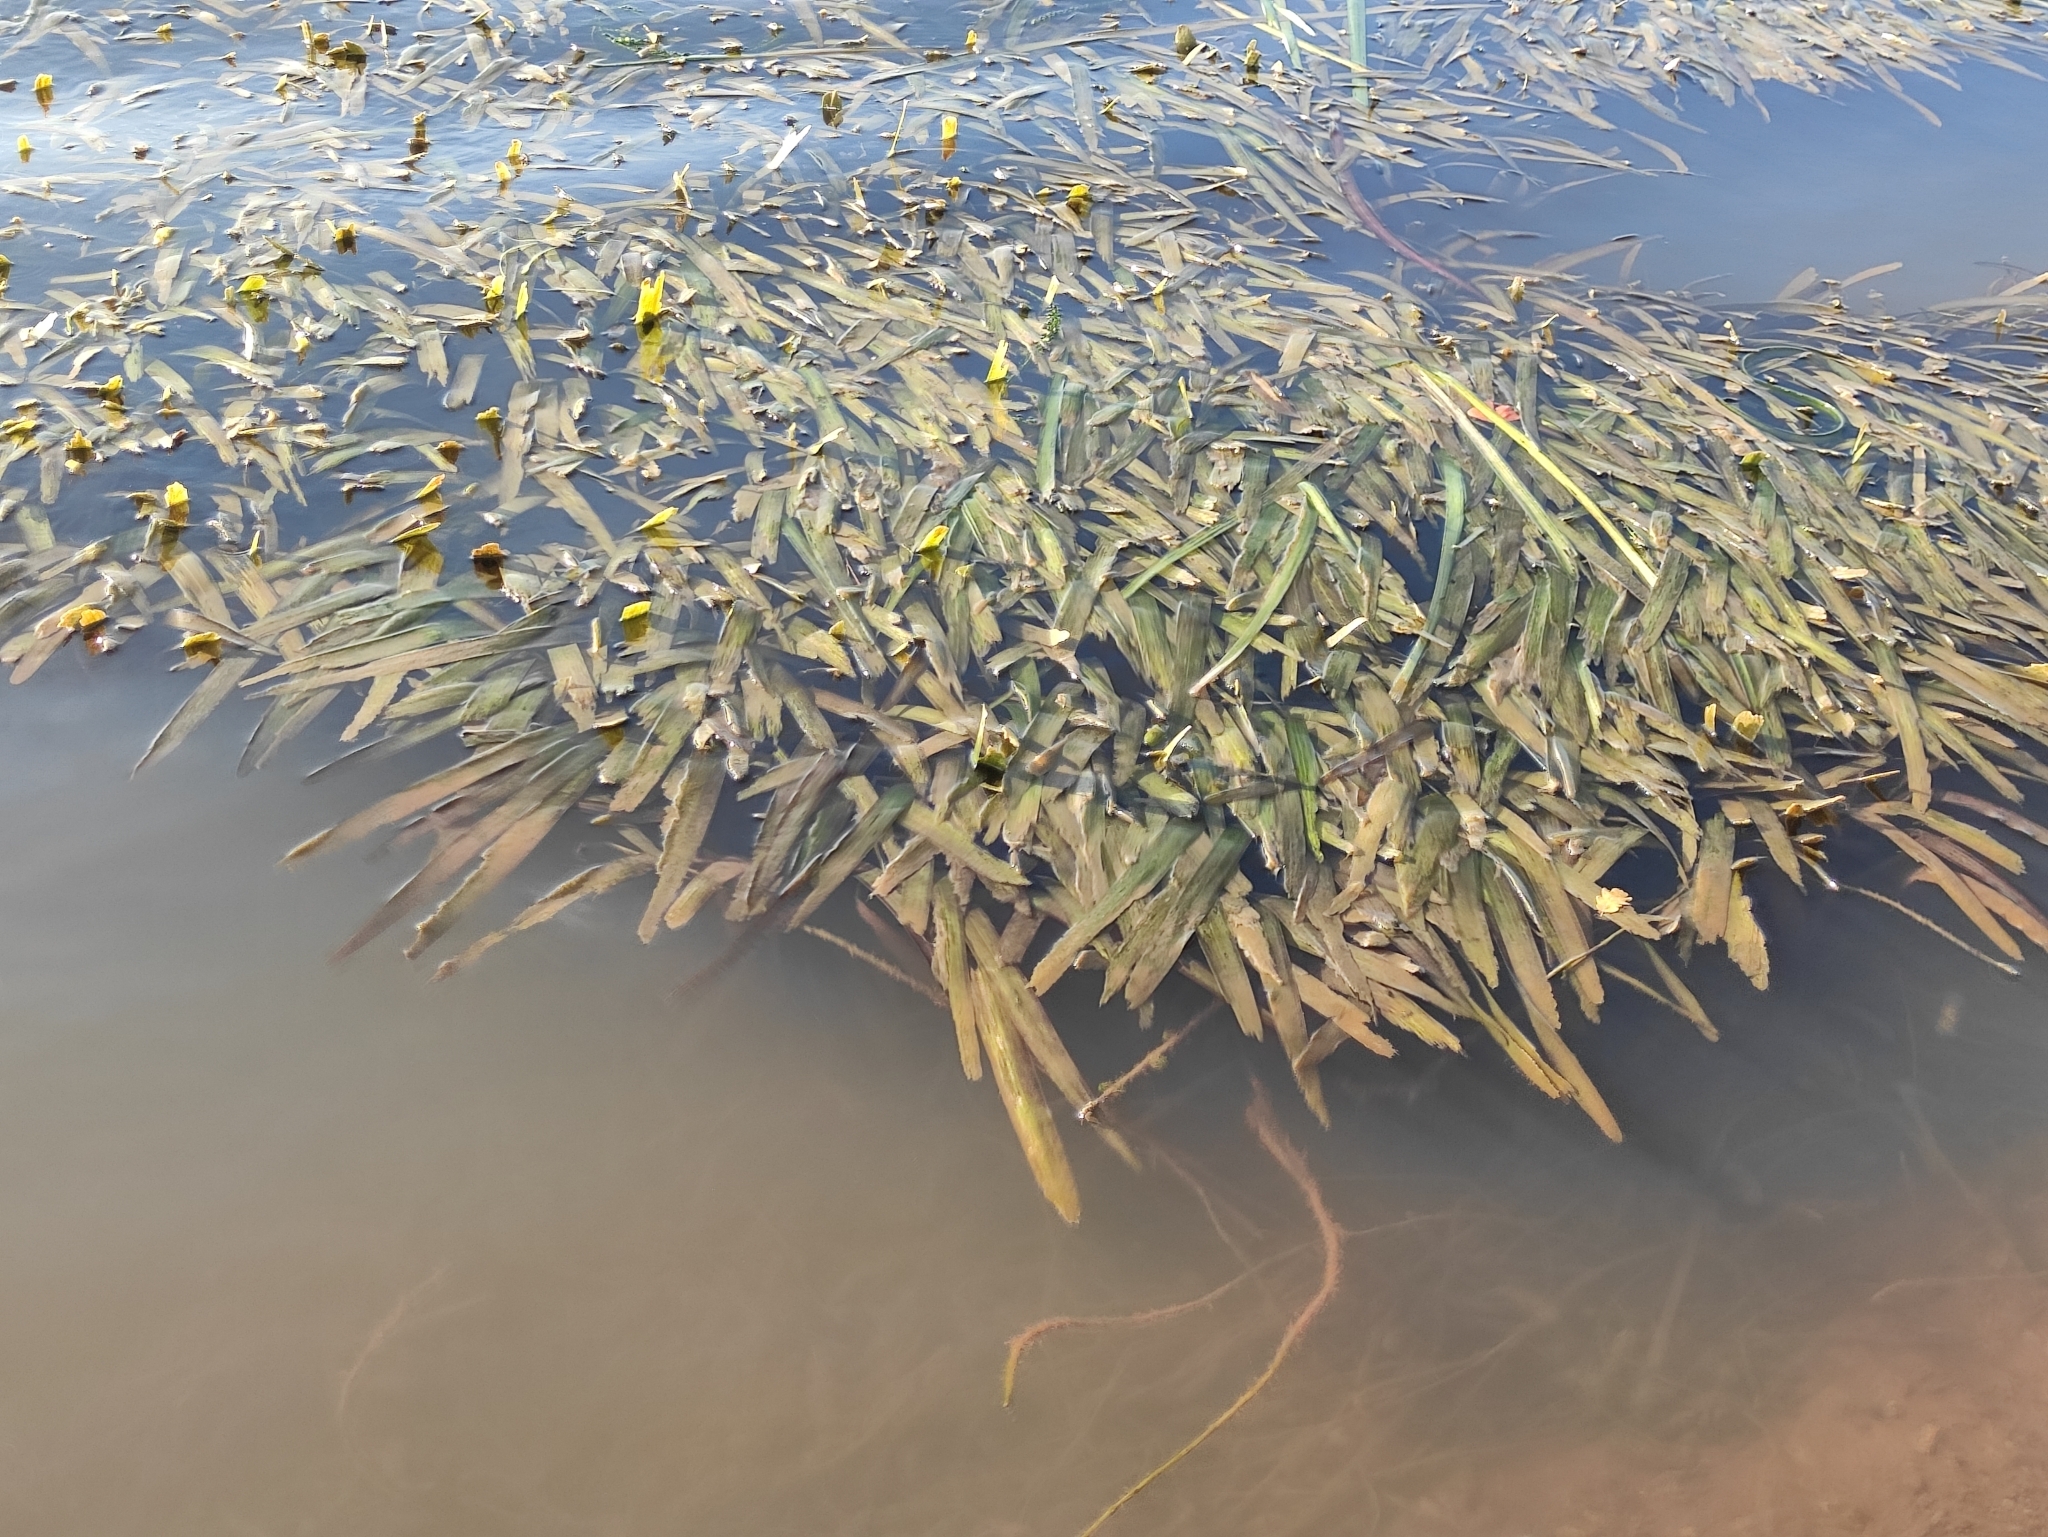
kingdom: Plantae
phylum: Tracheophyta
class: Liliopsida
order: Alismatales
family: Hydrocharitaceae
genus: Vallisneria
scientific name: Vallisneria australis
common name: Australian eelgrass
